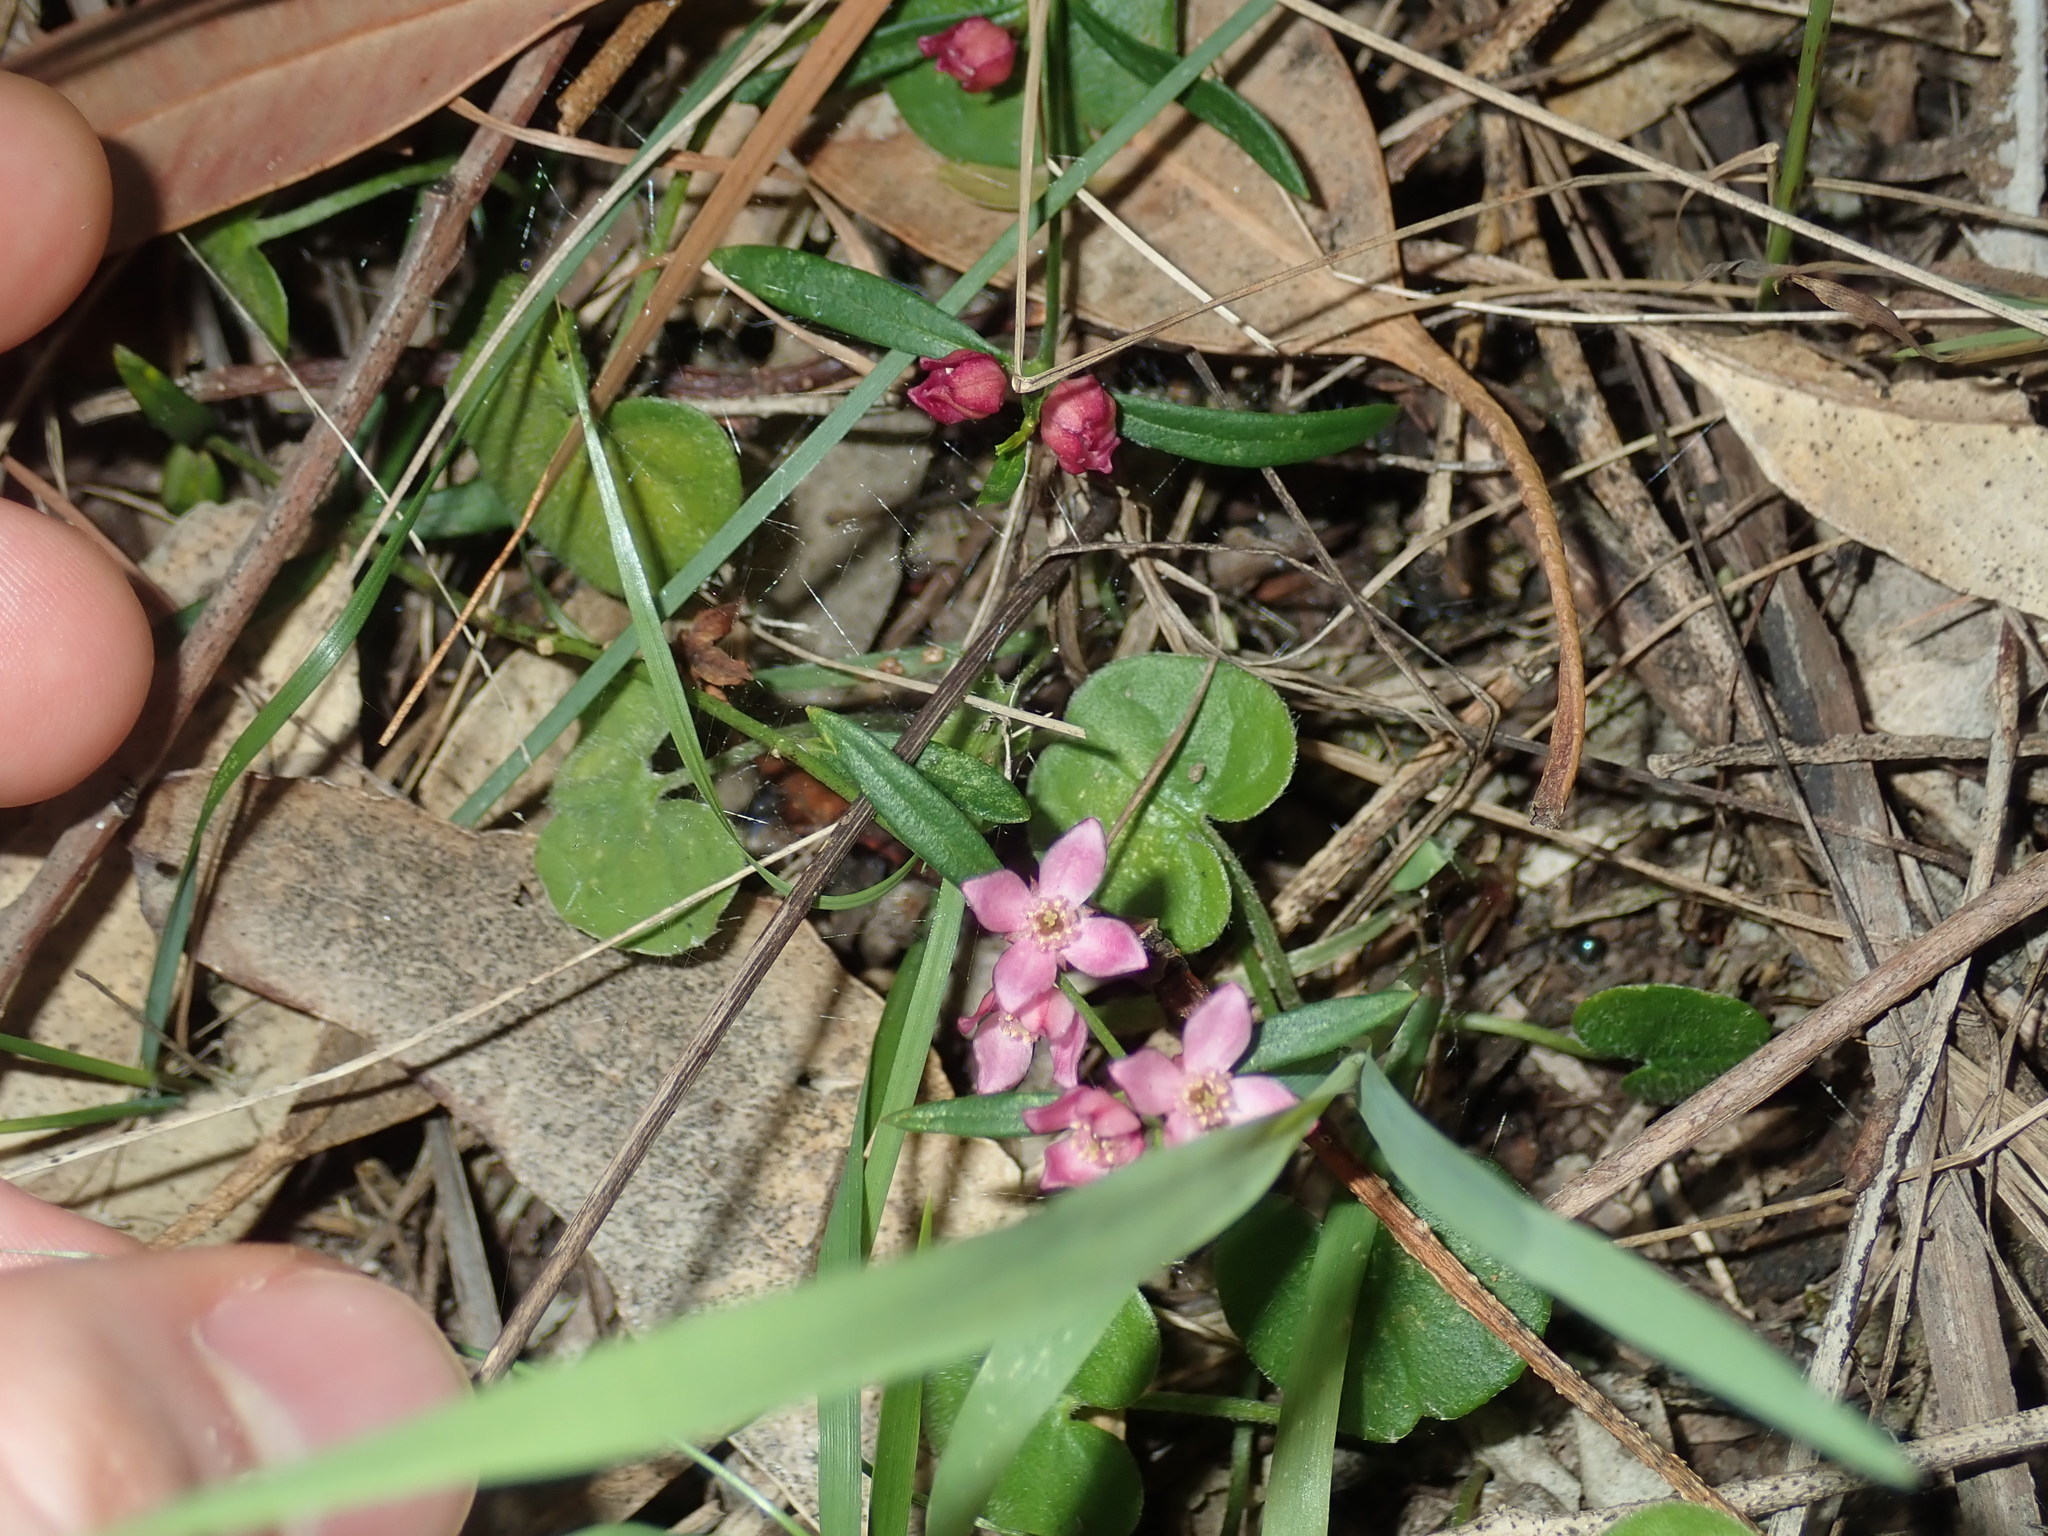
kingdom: Plantae
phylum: Tracheophyta
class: Magnoliopsida
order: Sapindales
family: Rutaceae
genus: Cyanothamnus
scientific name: Cyanothamnus polygalifolius
